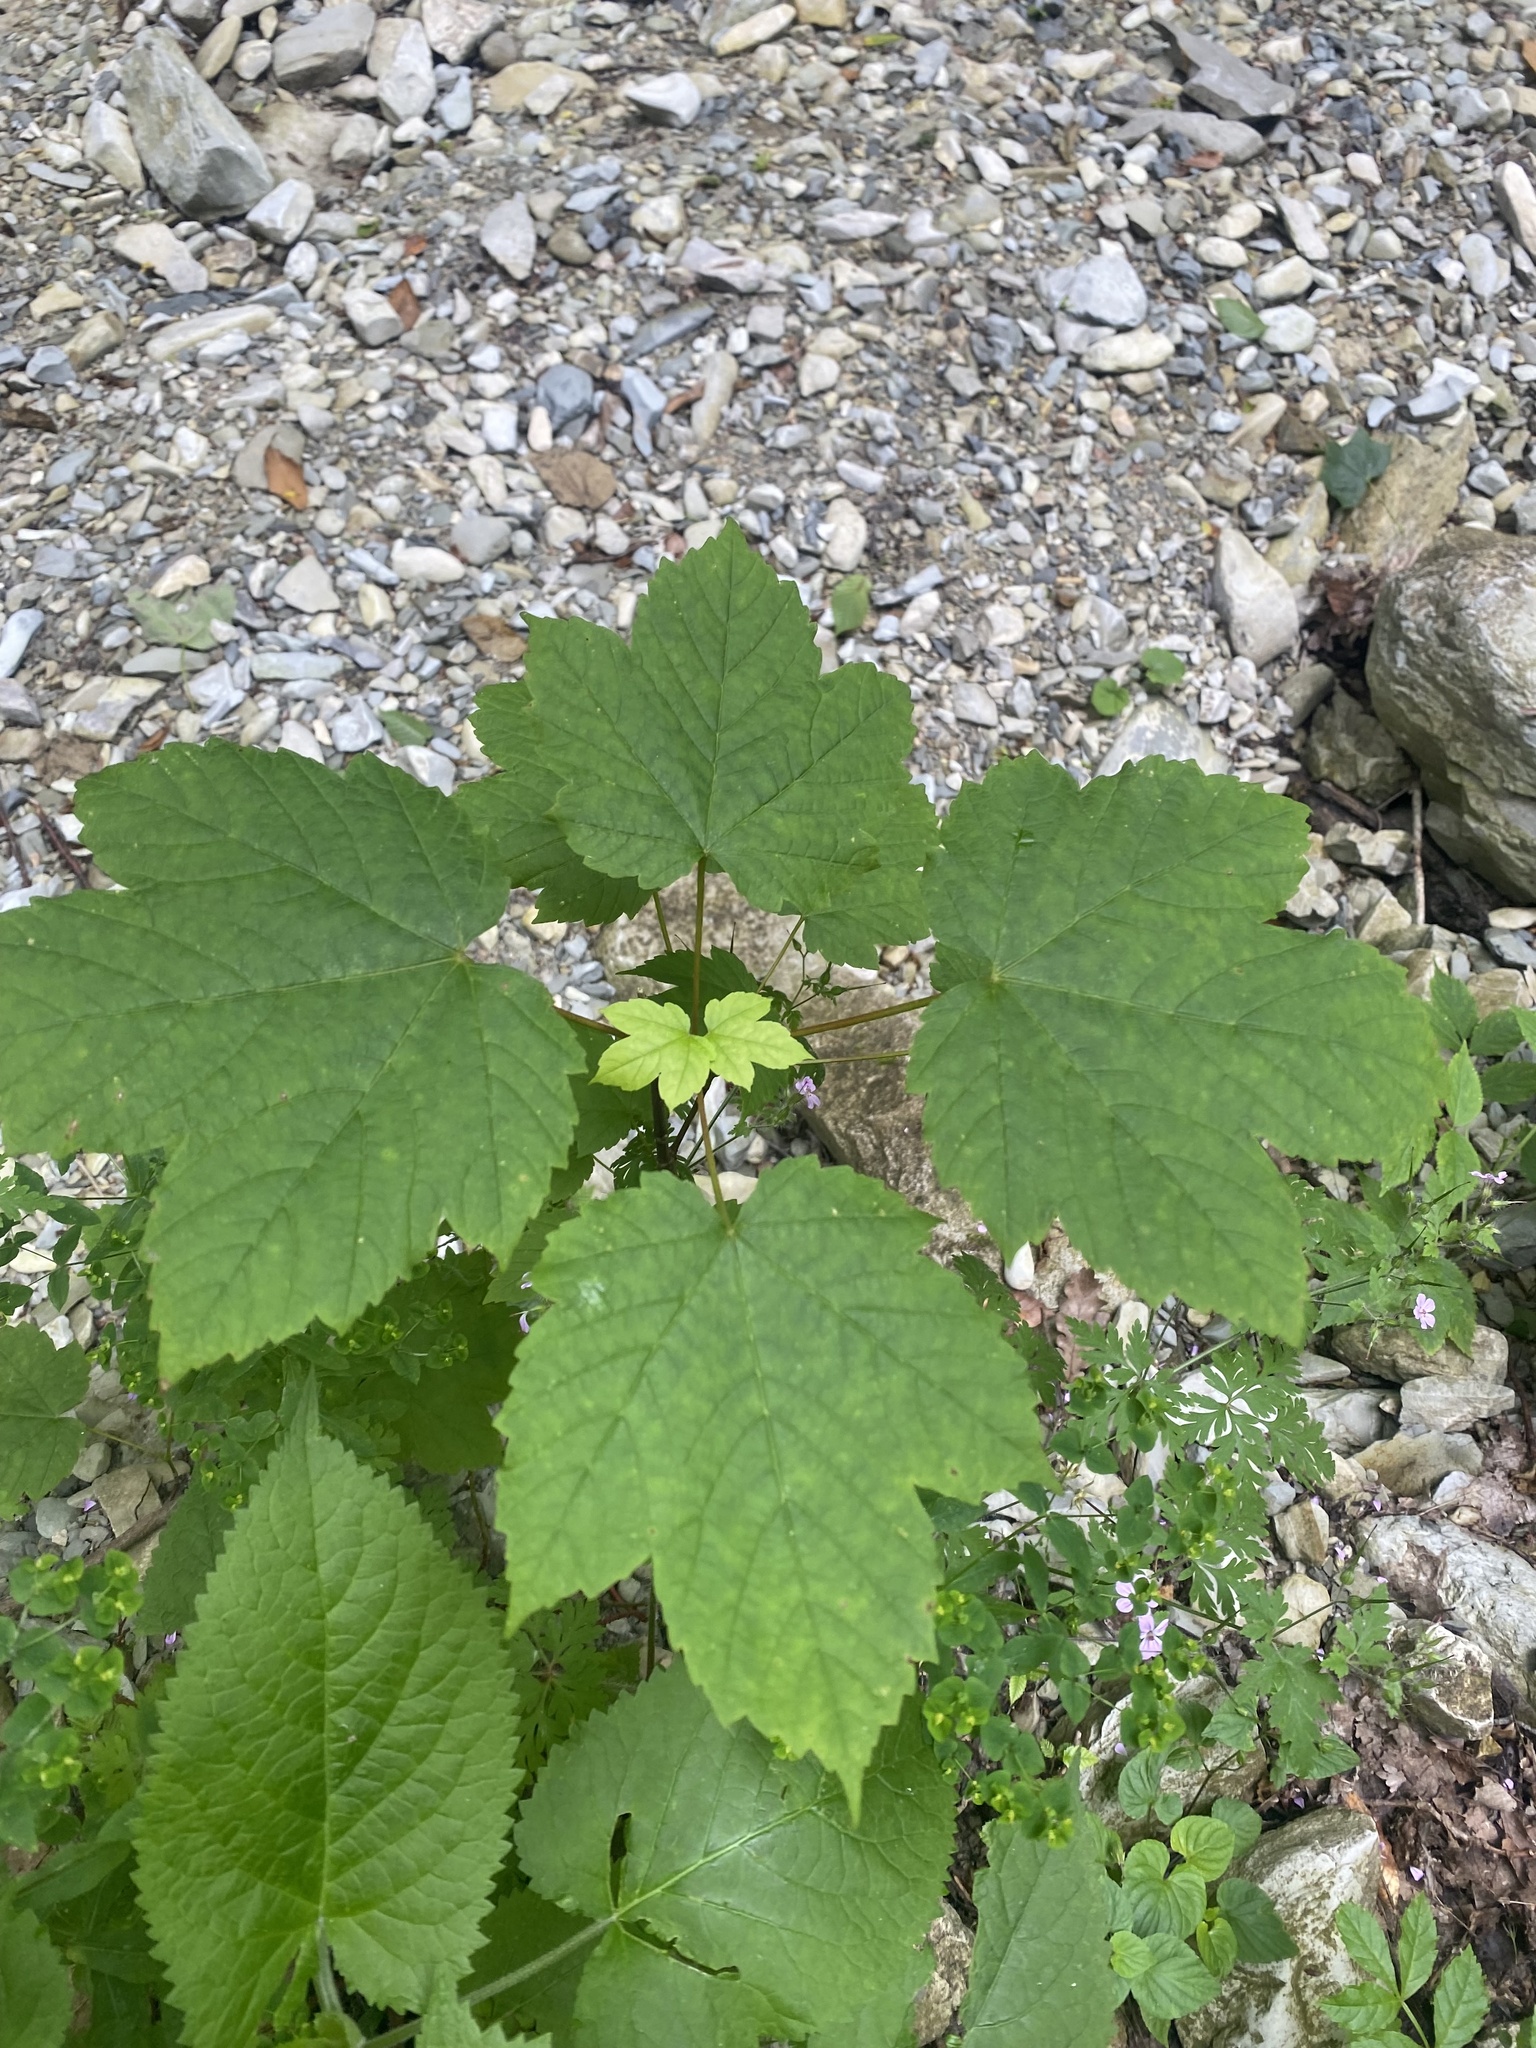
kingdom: Plantae
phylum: Tracheophyta
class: Magnoliopsida
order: Sapindales
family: Sapindaceae
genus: Acer
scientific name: Acer pseudoplatanus
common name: Sycamore
